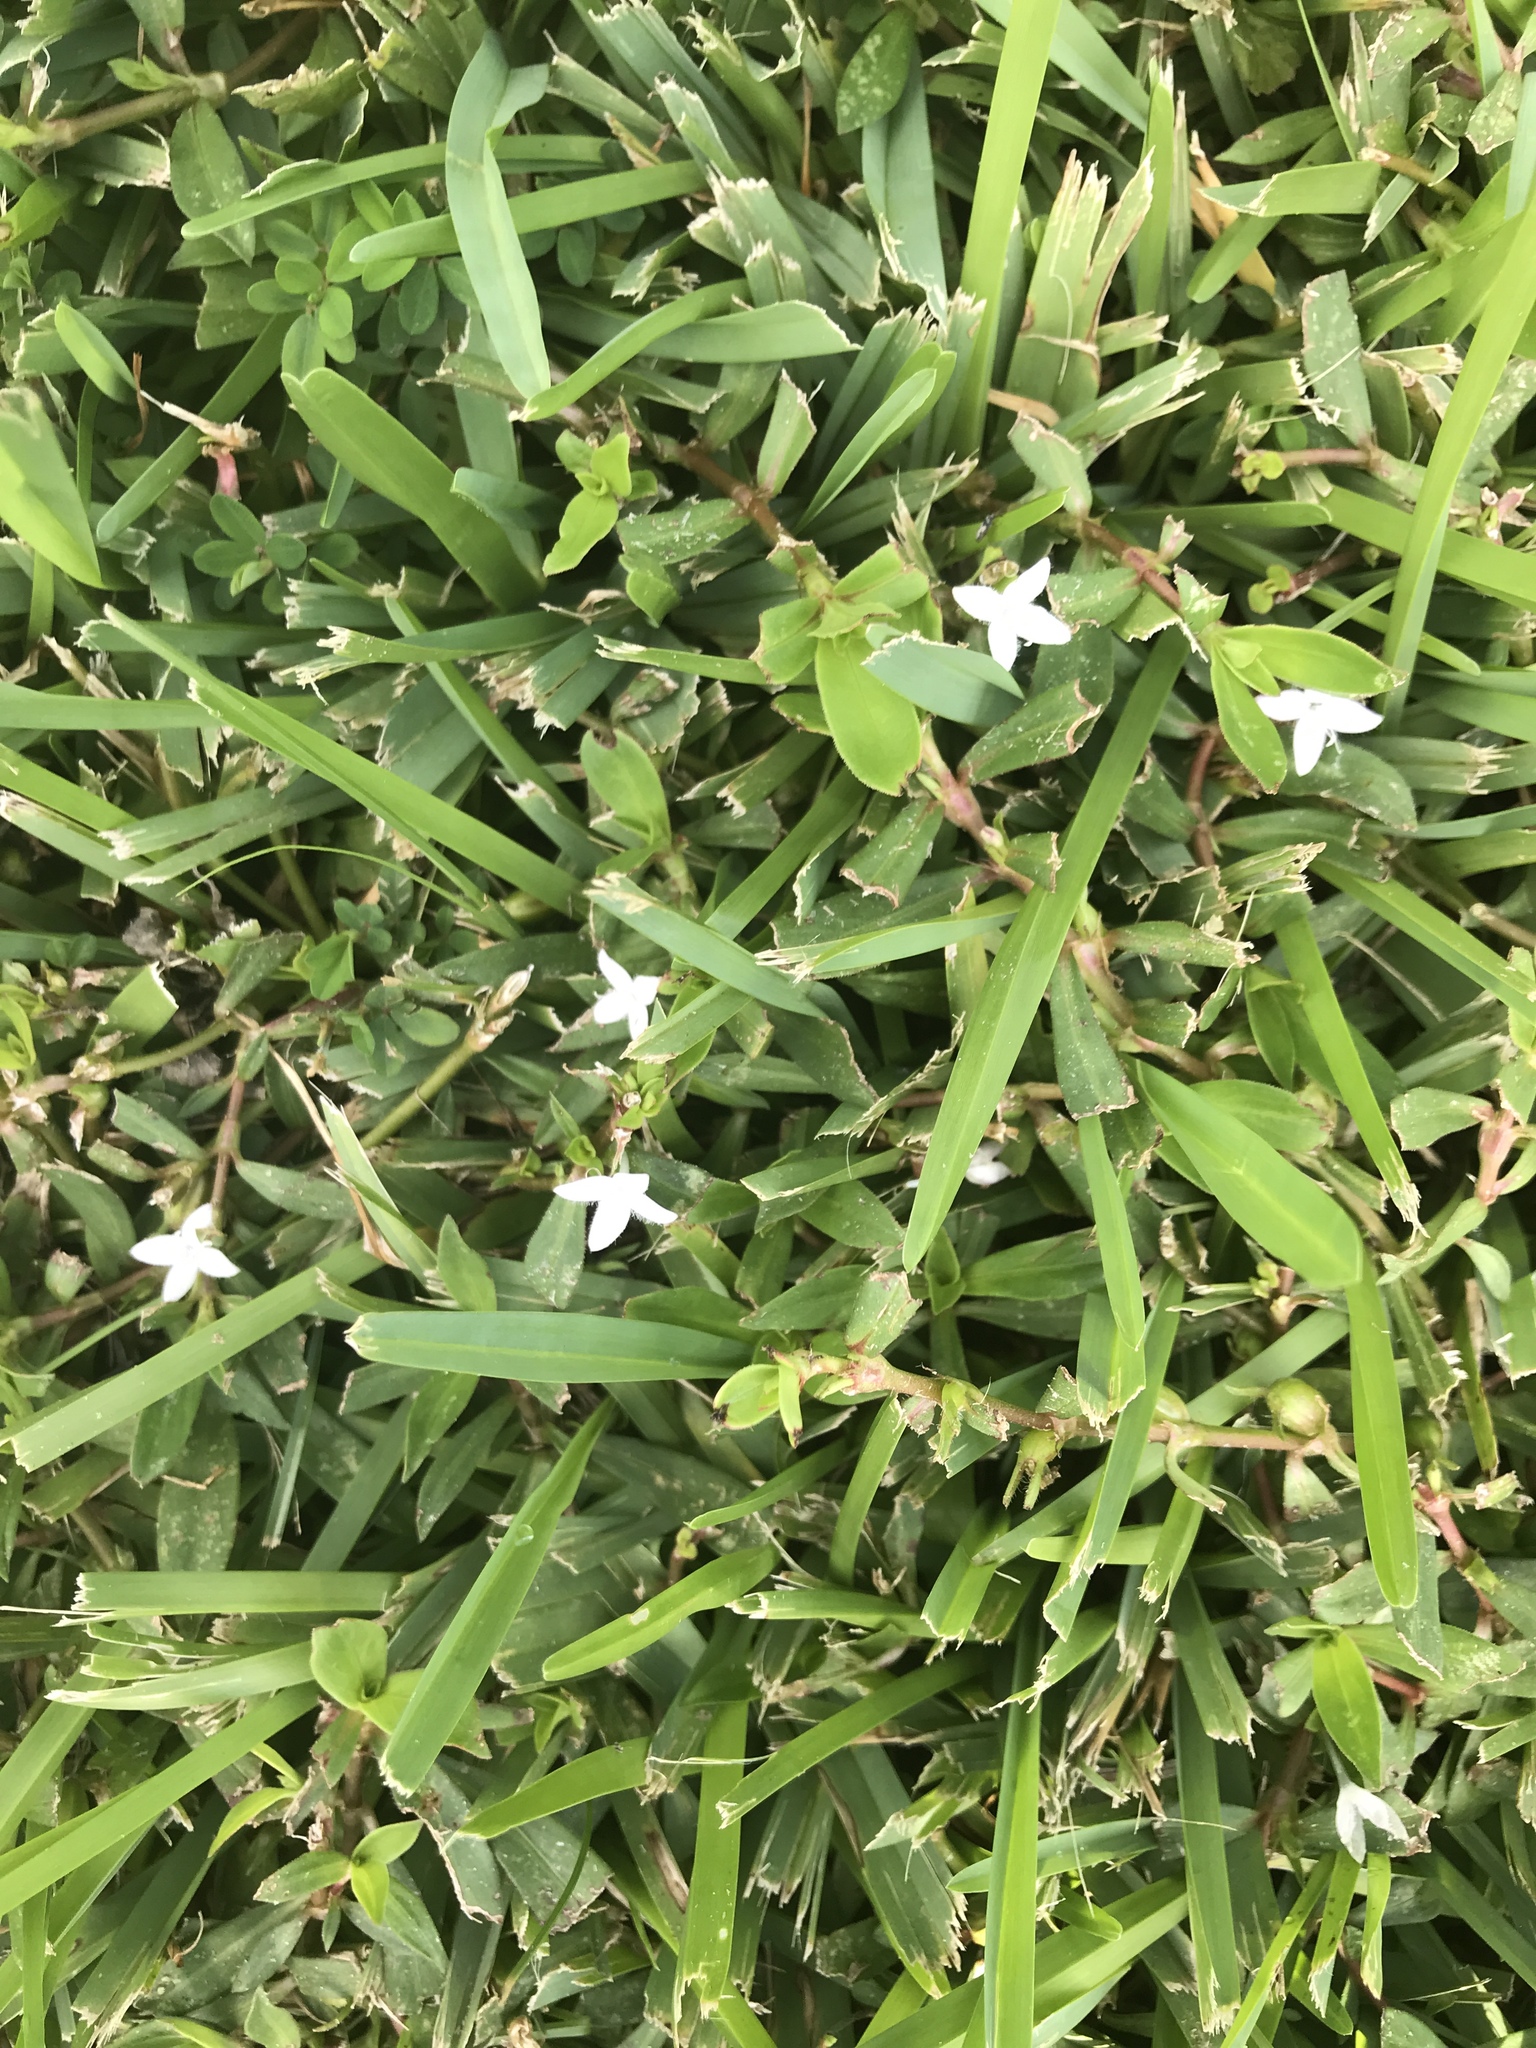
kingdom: Plantae
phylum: Tracheophyta
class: Magnoliopsida
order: Gentianales
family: Rubiaceae
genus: Diodia
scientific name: Diodia virginiana
